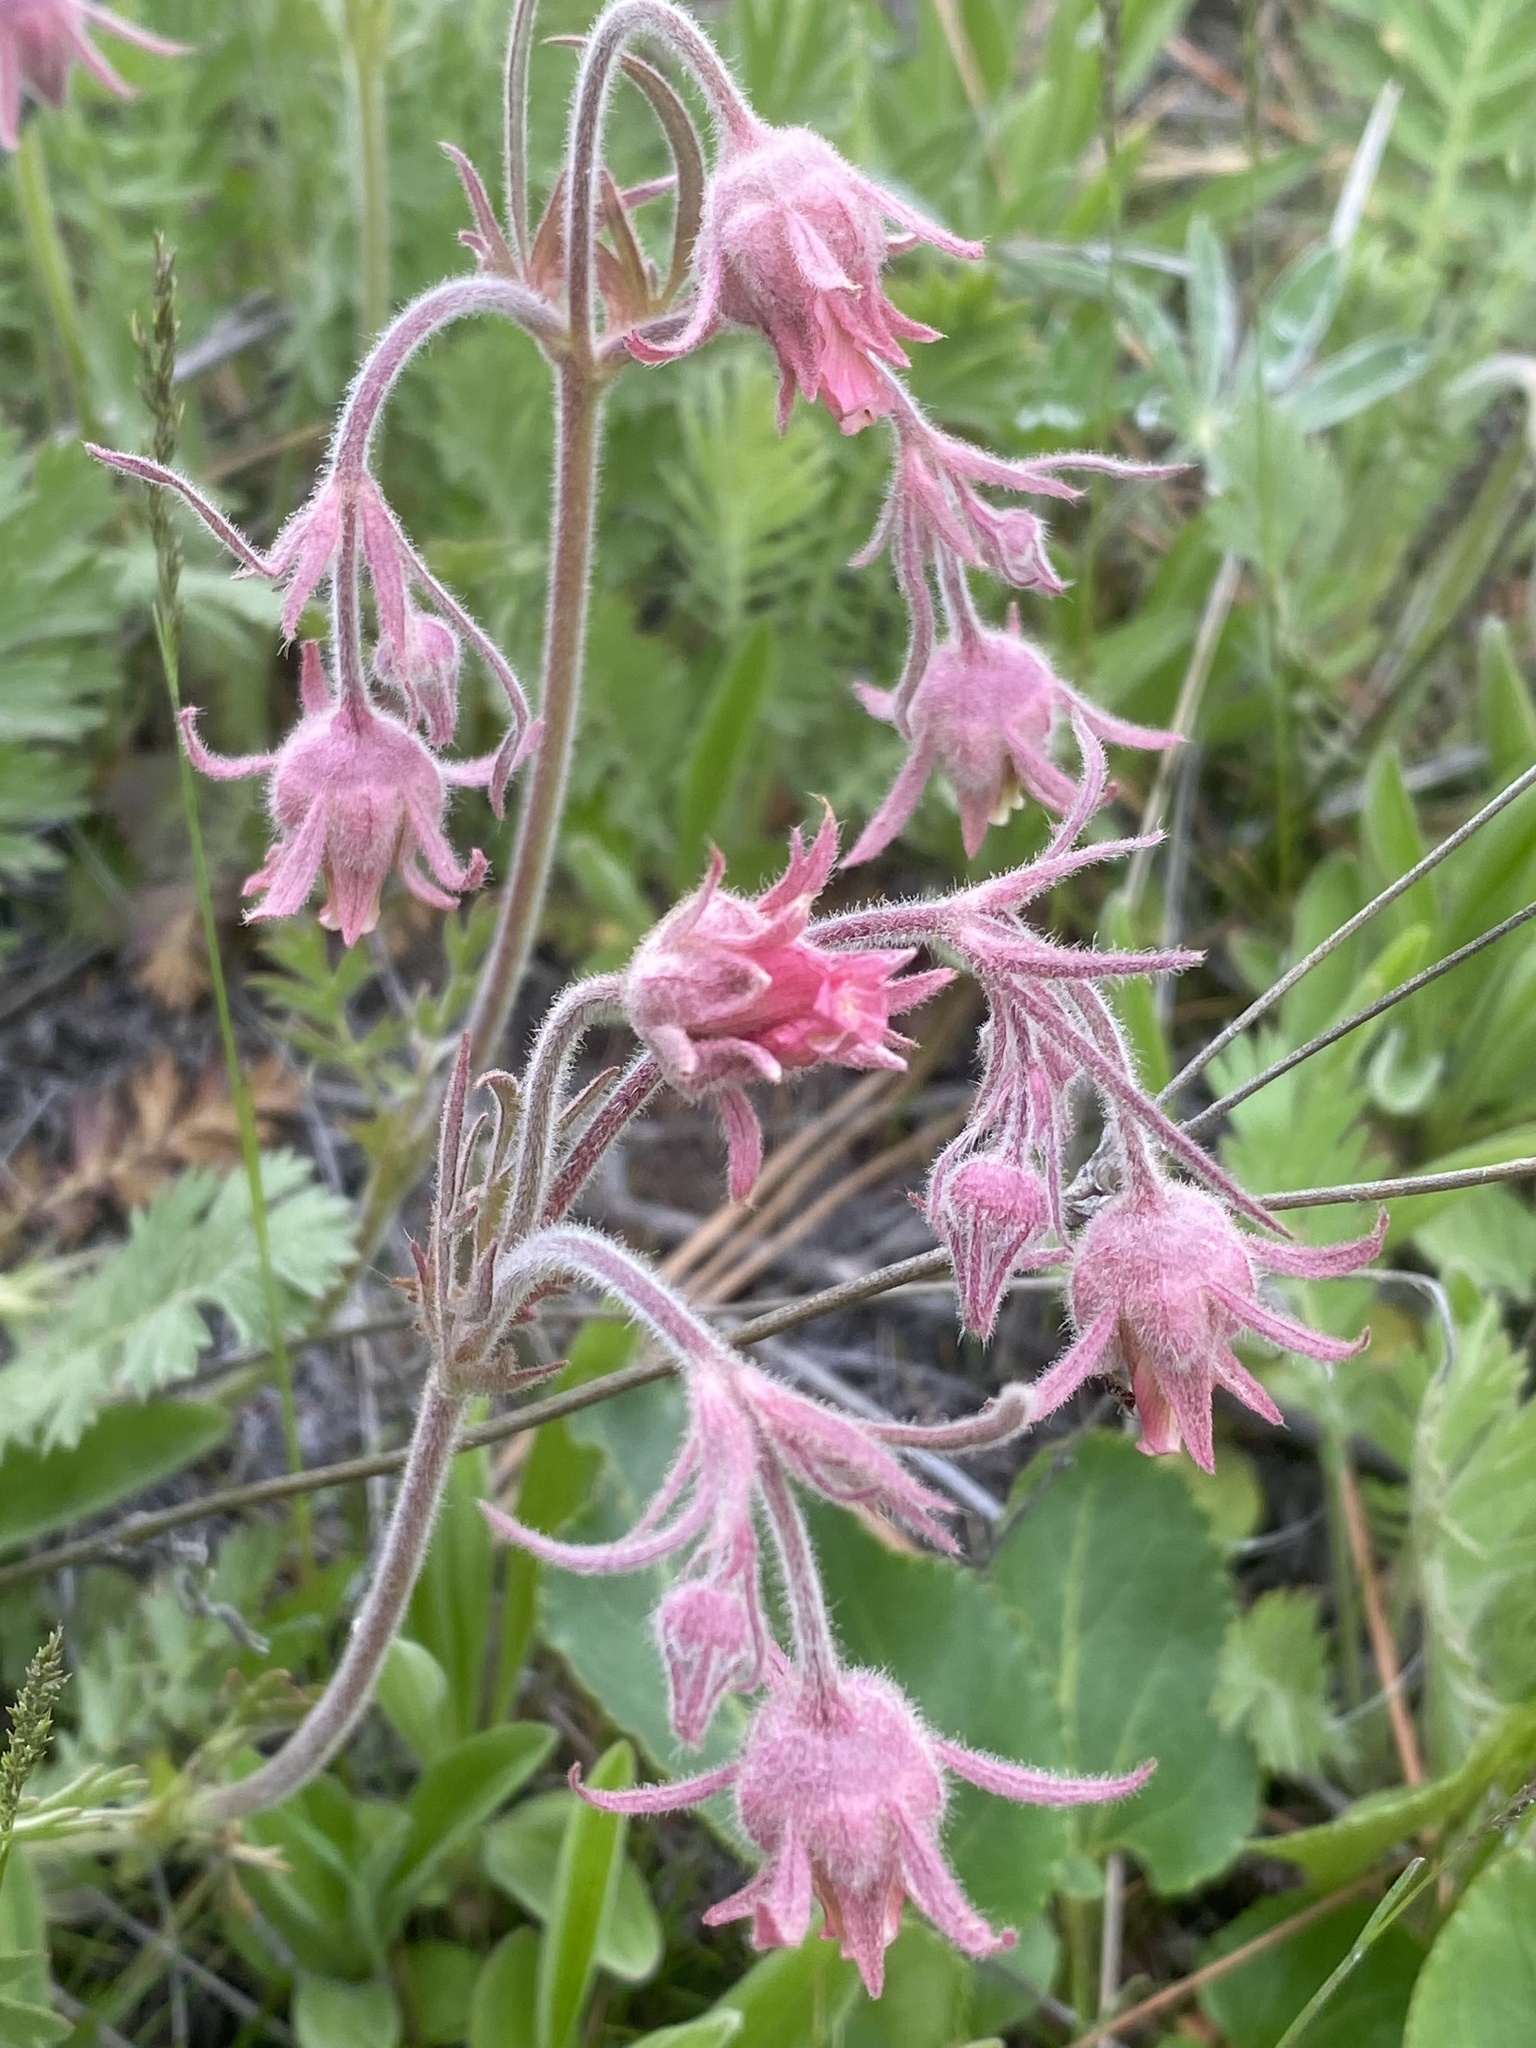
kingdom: Plantae
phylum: Tracheophyta
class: Magnoliopsida
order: Rosales
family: Rosaceae
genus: Geum
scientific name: Geum triflorum
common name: Old man's whiskers
